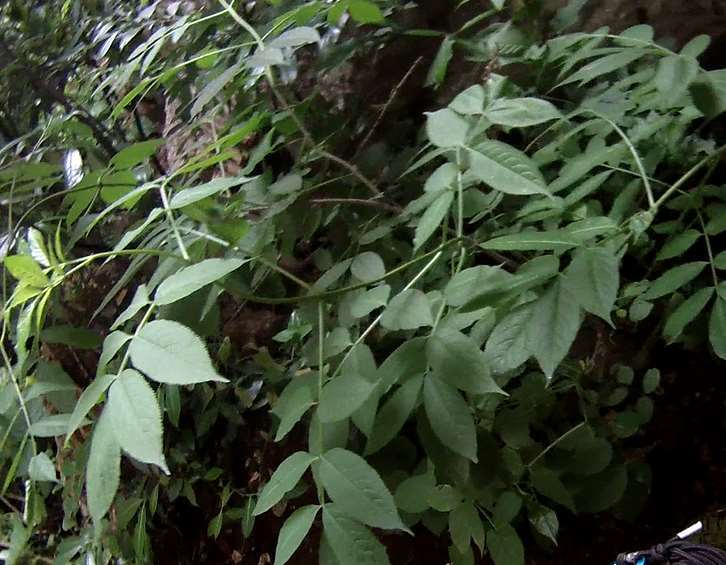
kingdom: Plantae
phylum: Tracheophyta
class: Magnoliopsida
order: Dipsacales
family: Viburnaceae
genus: Sambucus
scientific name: Sambucus nigra
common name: Elder
